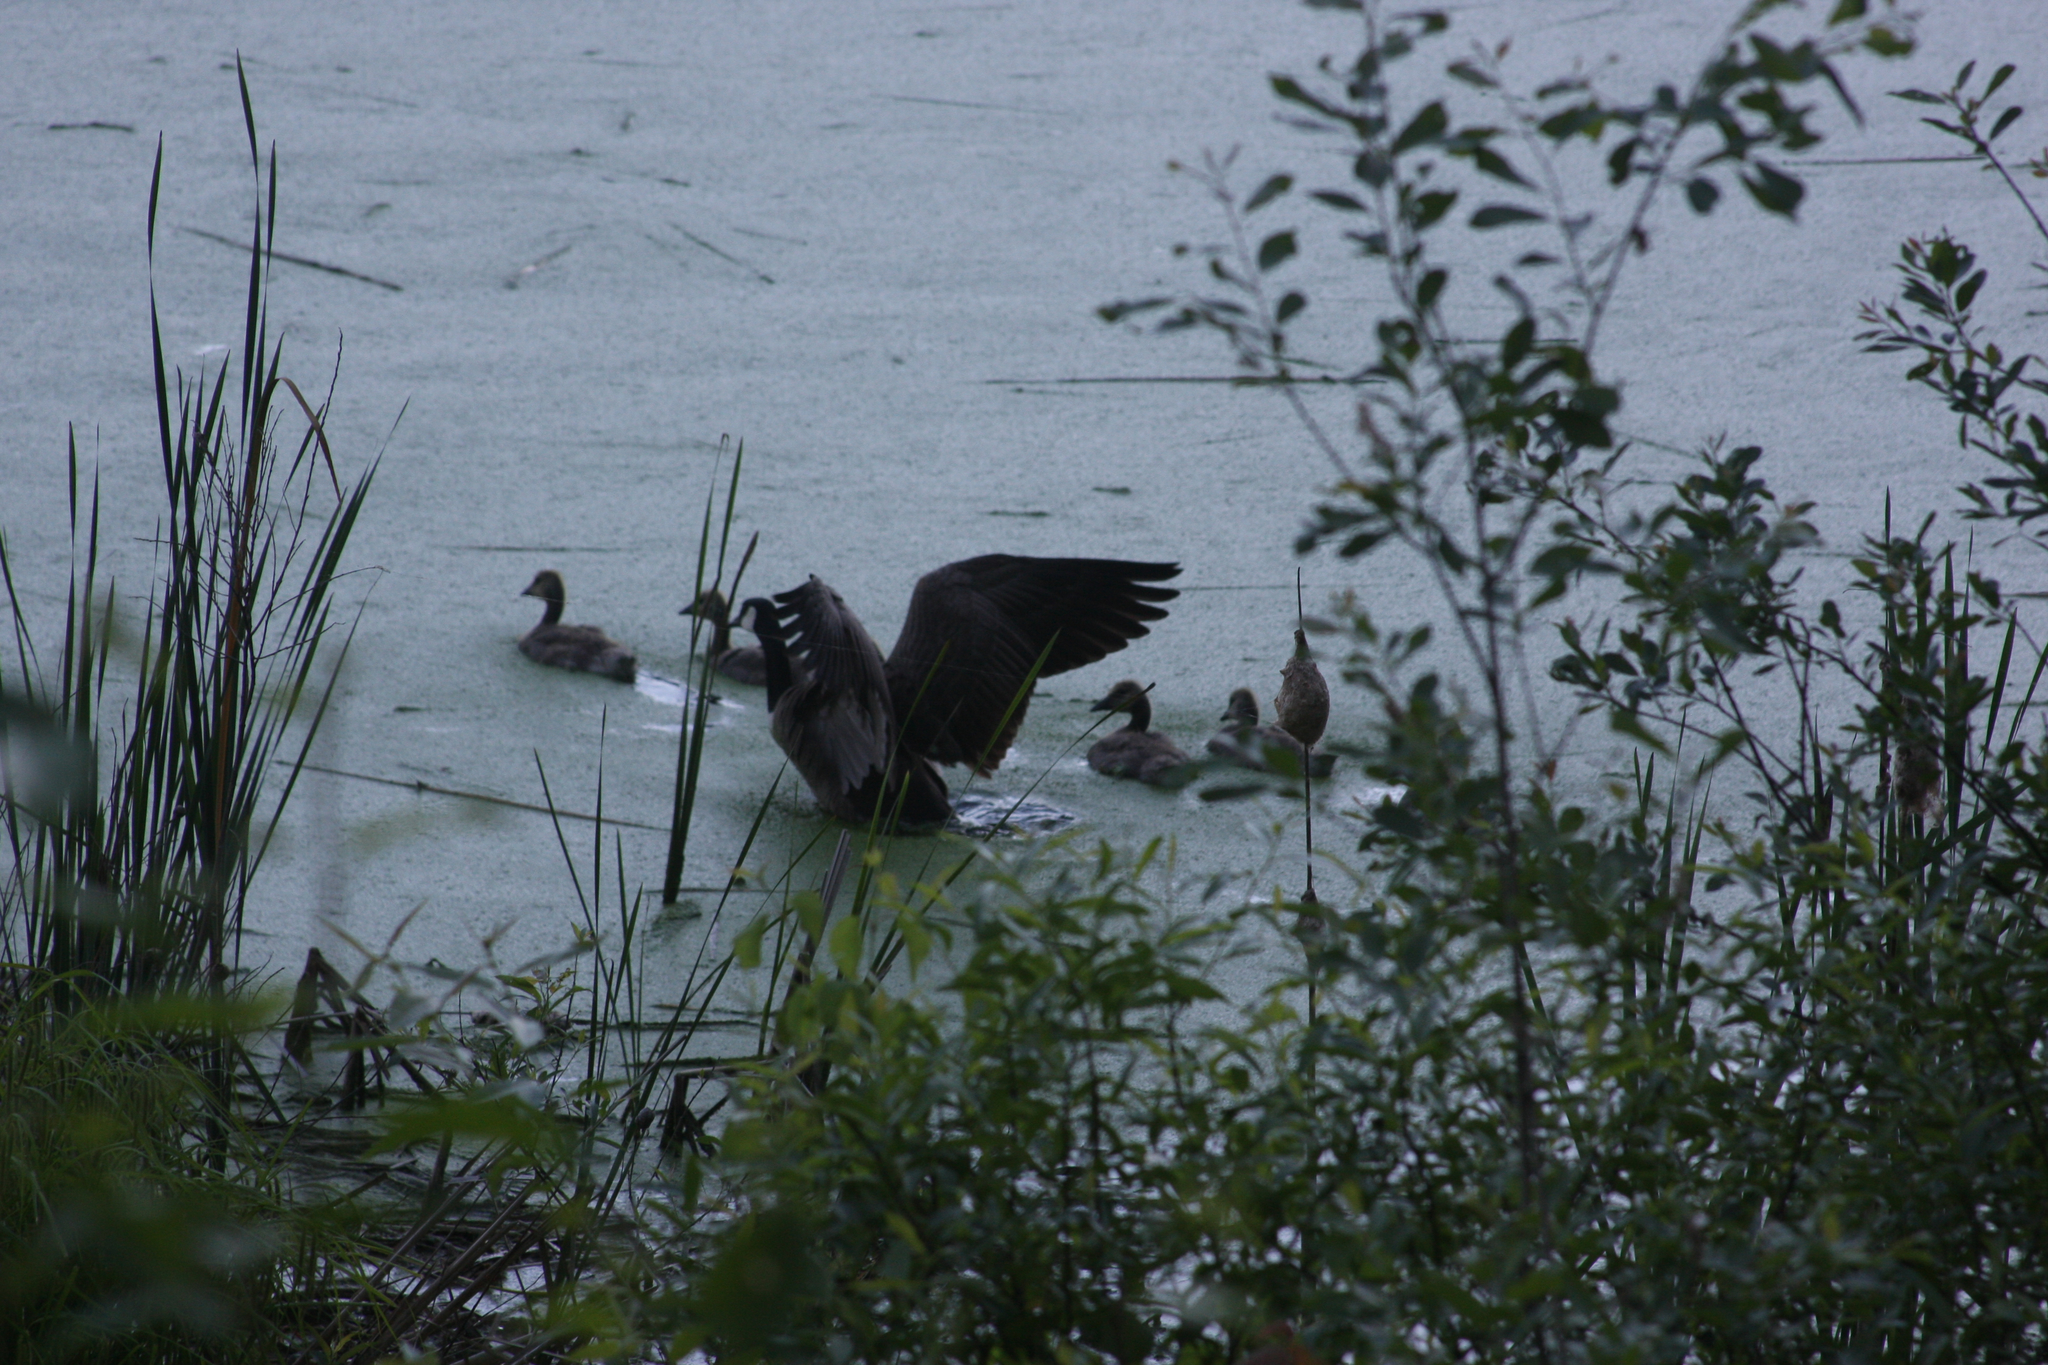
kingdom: Animalia
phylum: Chordata
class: Aves
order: Anseriformes
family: Anatidae
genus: Branta
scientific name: Branta canadensis
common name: Canada goose
